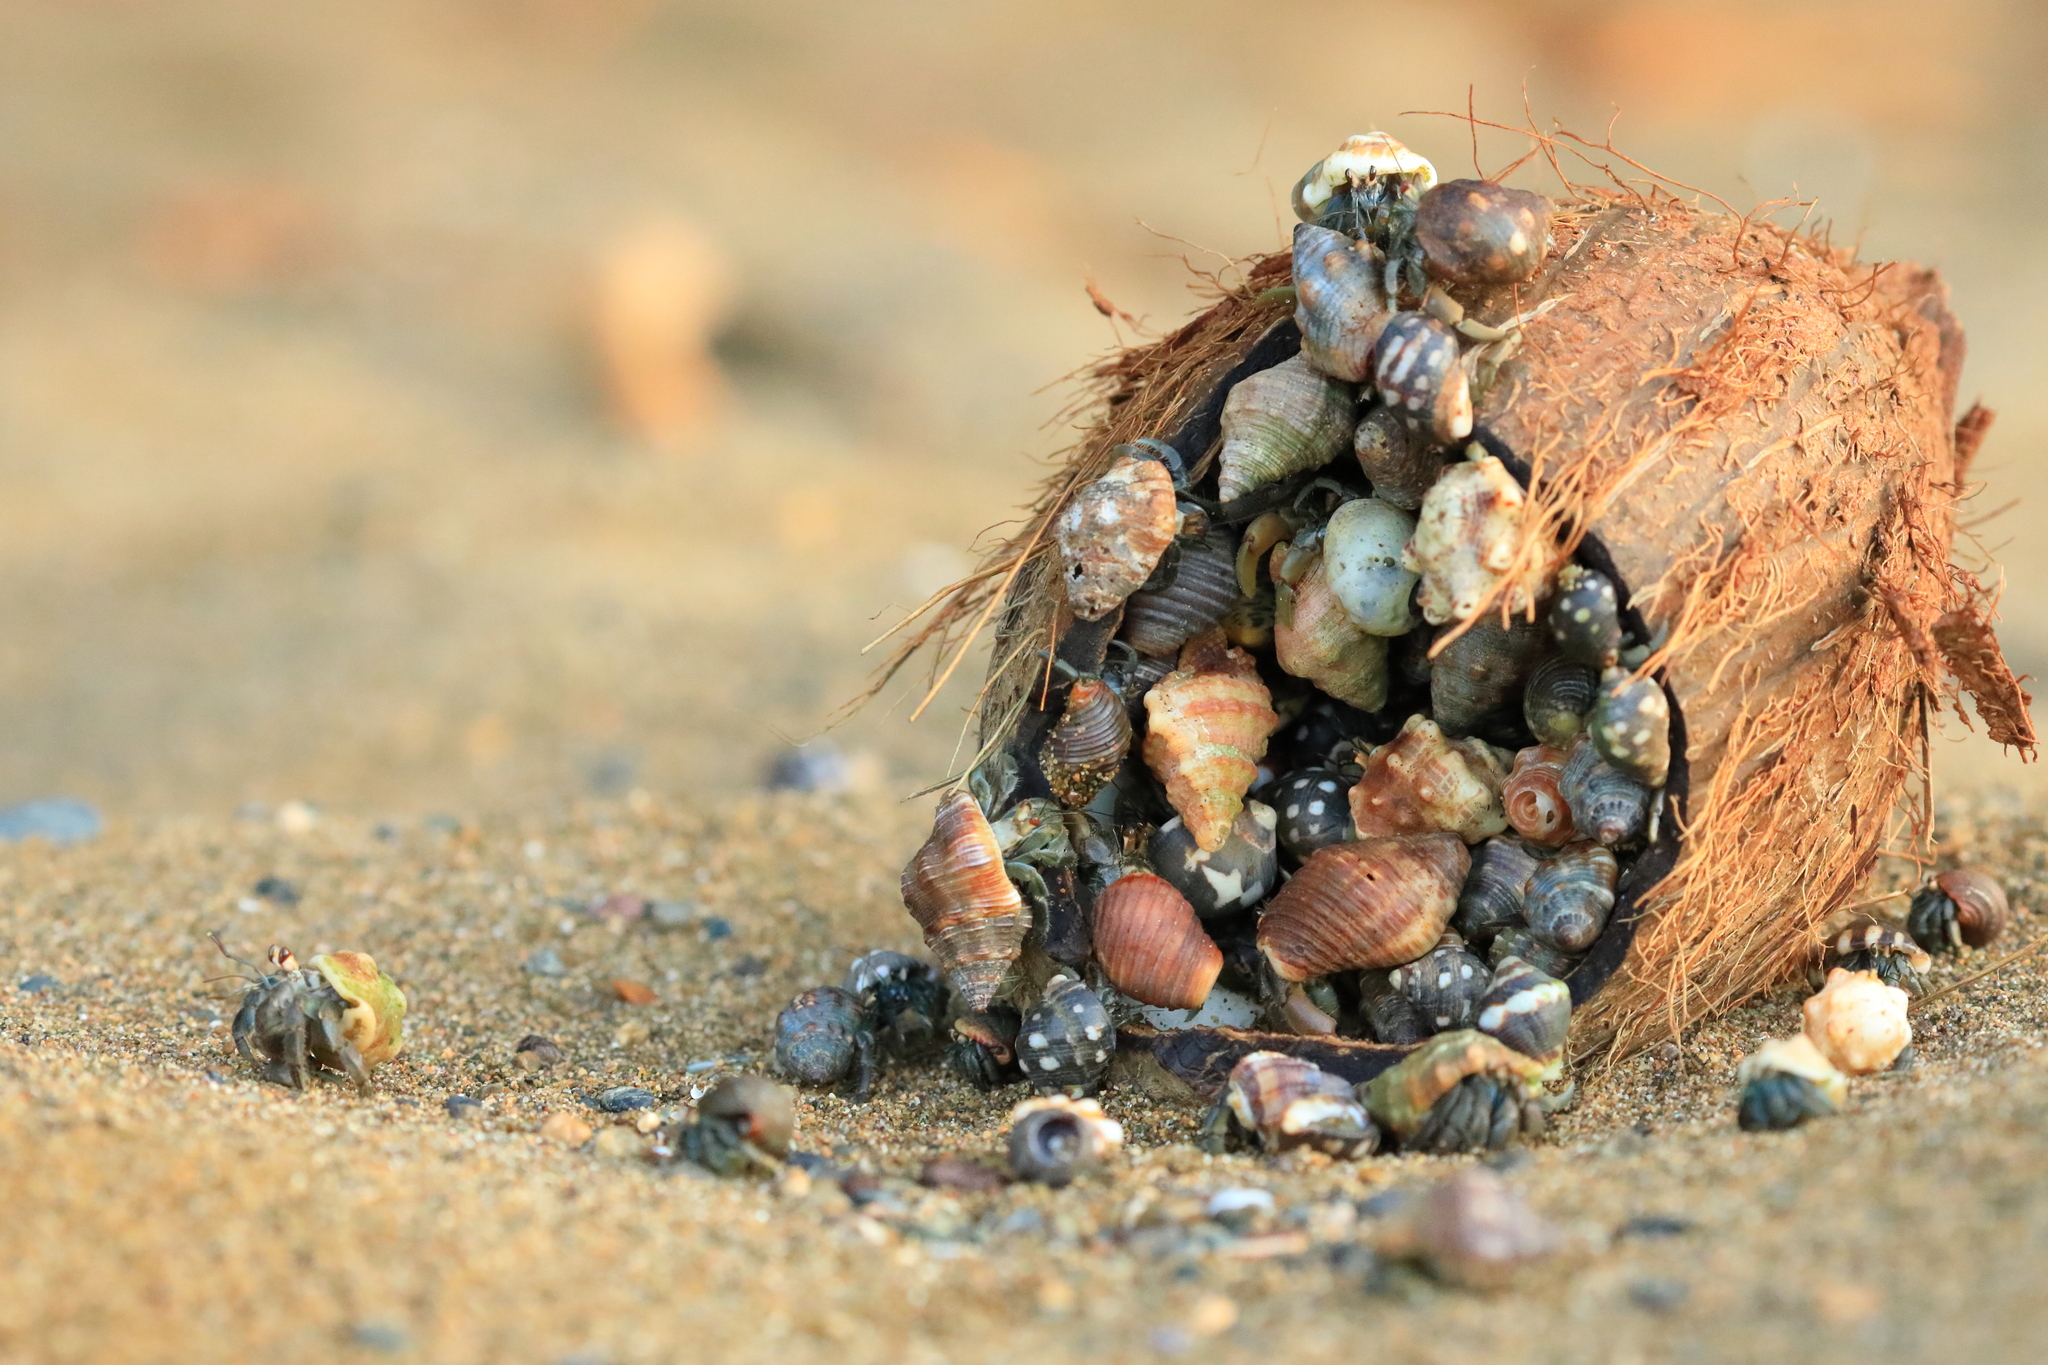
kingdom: Animalia
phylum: Arthropoda
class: Malacostraca
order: Decapoda
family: Coenobitidae
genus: Coenobita
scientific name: Coenobita compressus
